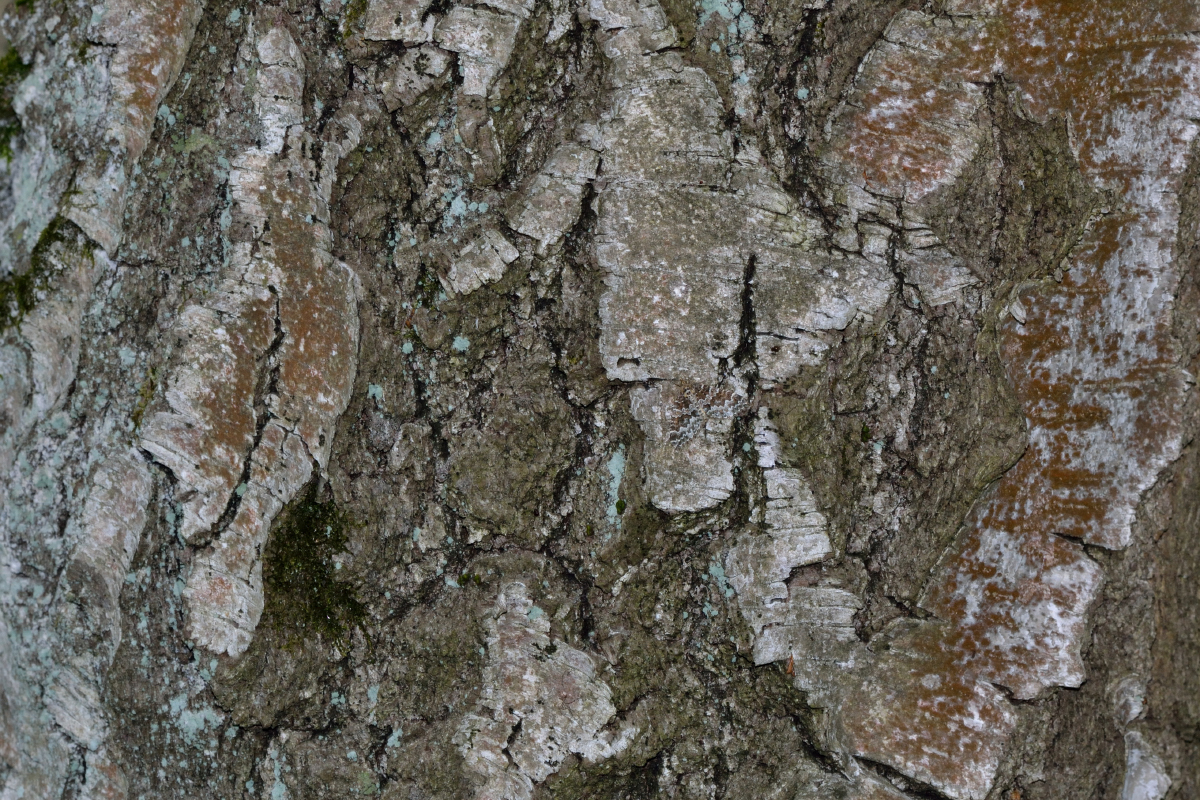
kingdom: Animalia
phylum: Arthropoda
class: Insecta
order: Lepidoptera
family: Geometridae
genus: Electrophaes
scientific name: Electrophaes corylata
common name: Broken-barred carpet
